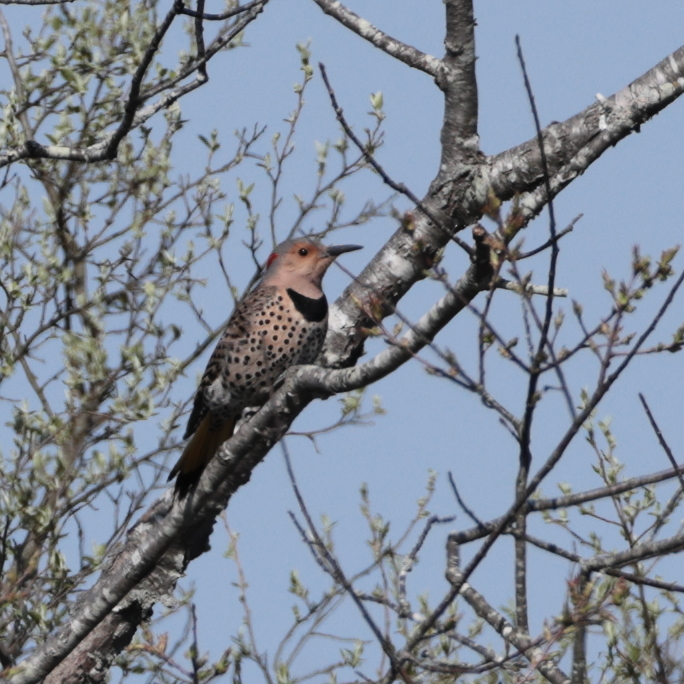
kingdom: Animalia
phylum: Chordata
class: Aves
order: Piciformes
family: Picidae
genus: Colaptes
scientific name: Colaptes auratus
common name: Northern flicker
